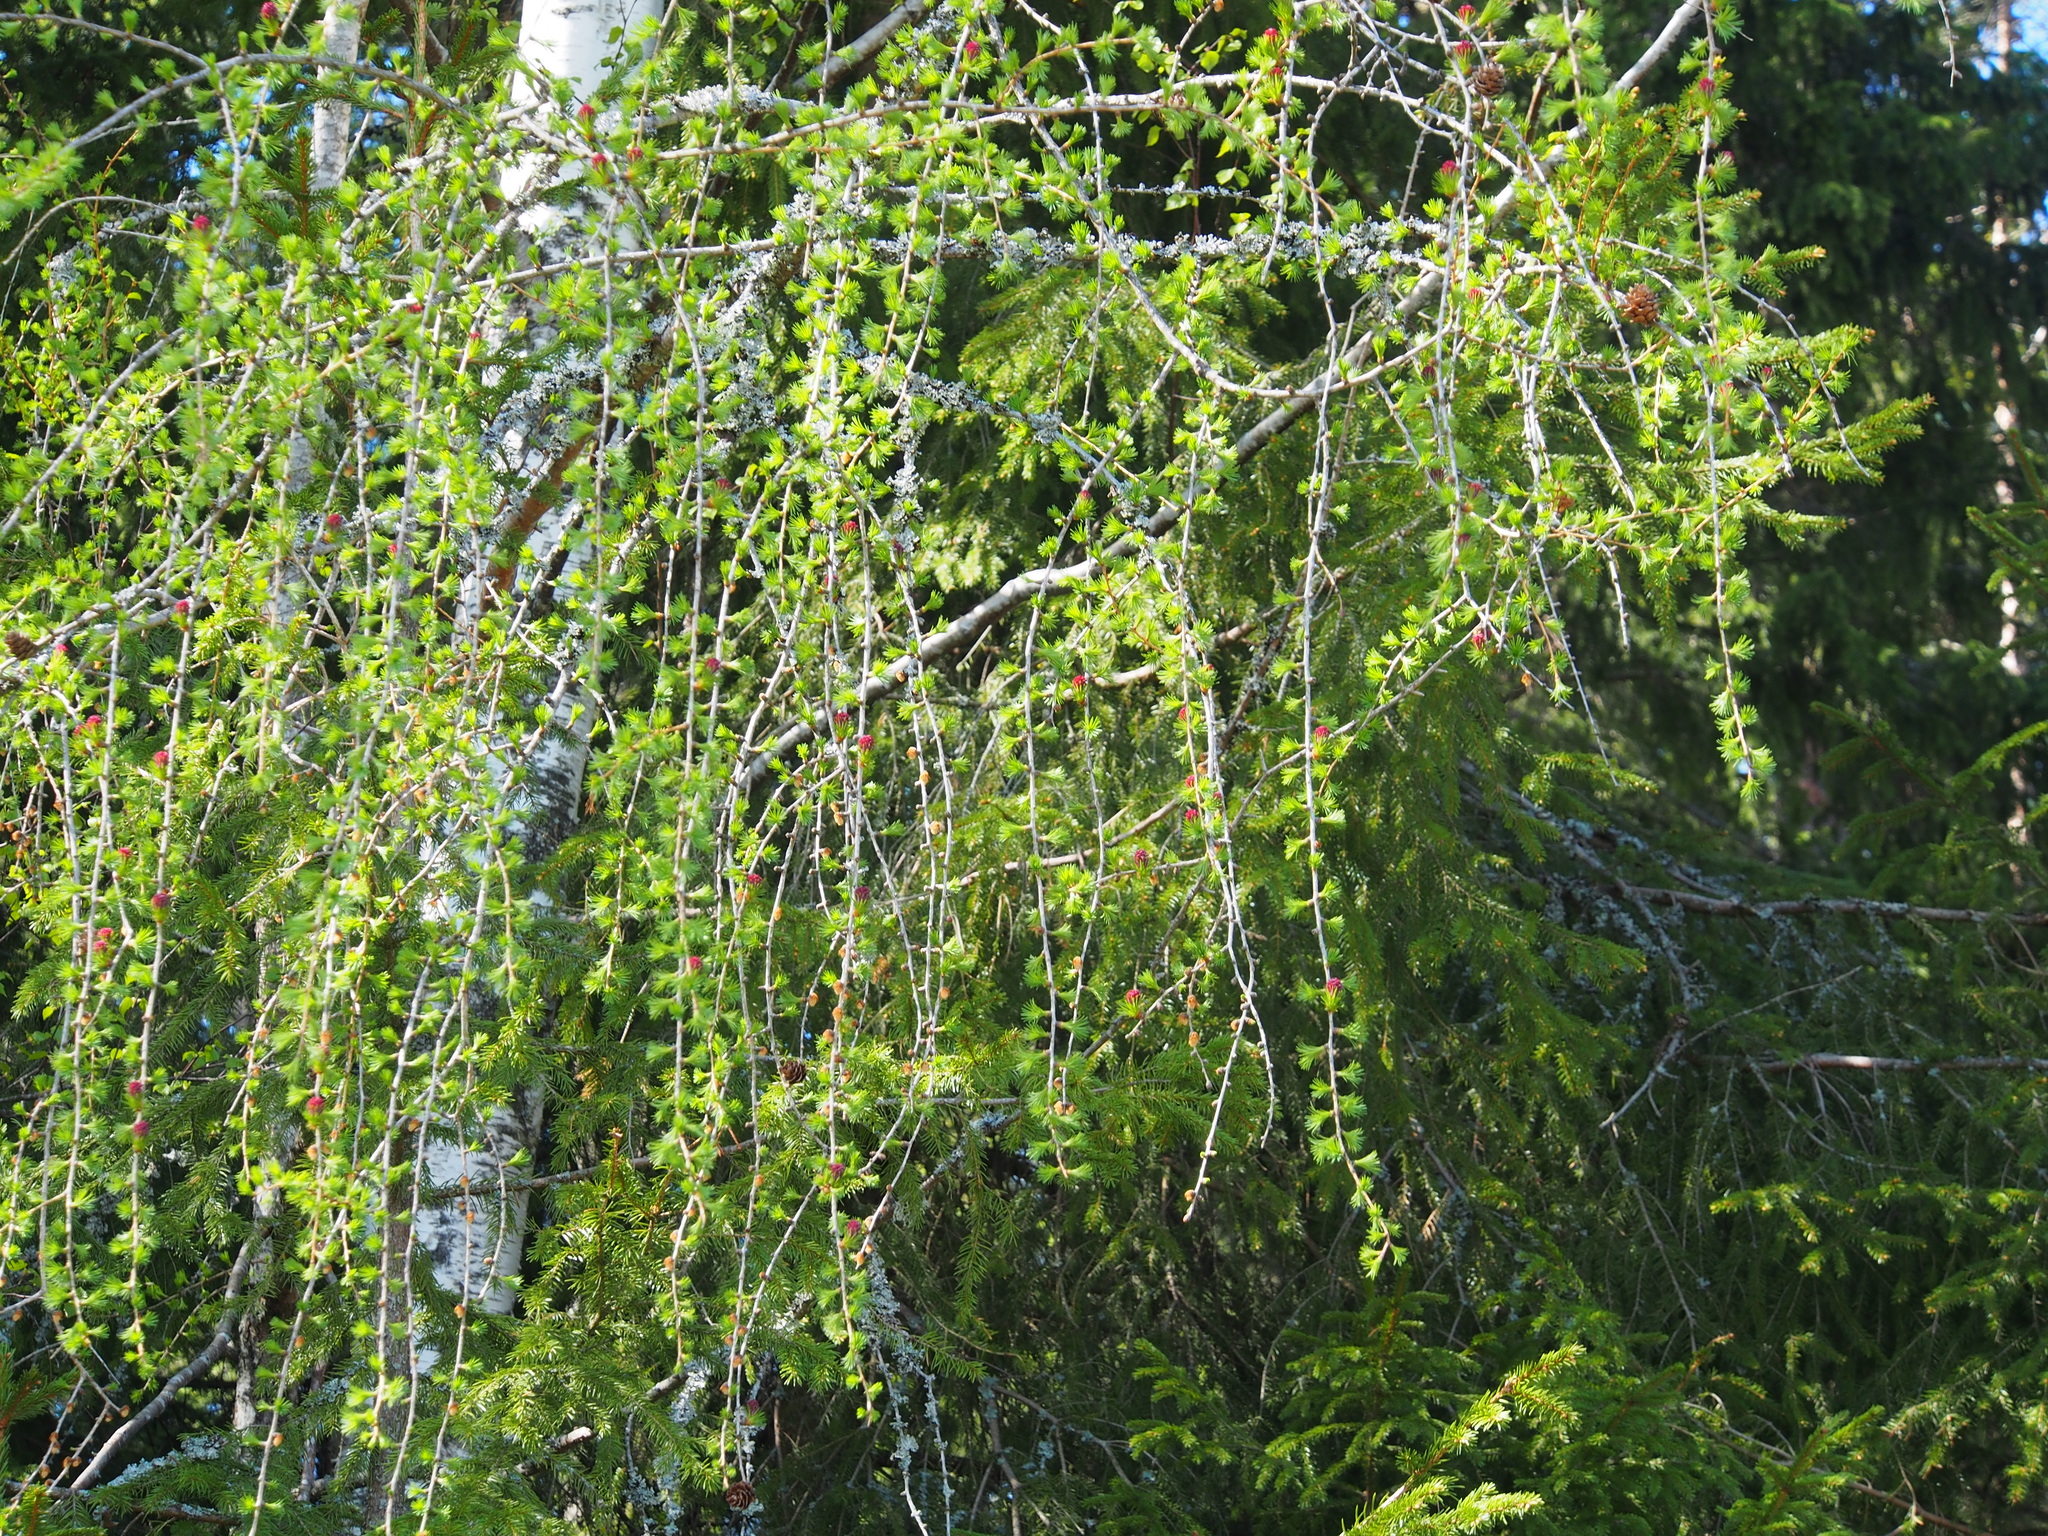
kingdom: Plantae
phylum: Tracheophyta
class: Pinopsida
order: Pinales
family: Pinaceae
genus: Larix
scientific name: Larix decidua
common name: European larch
